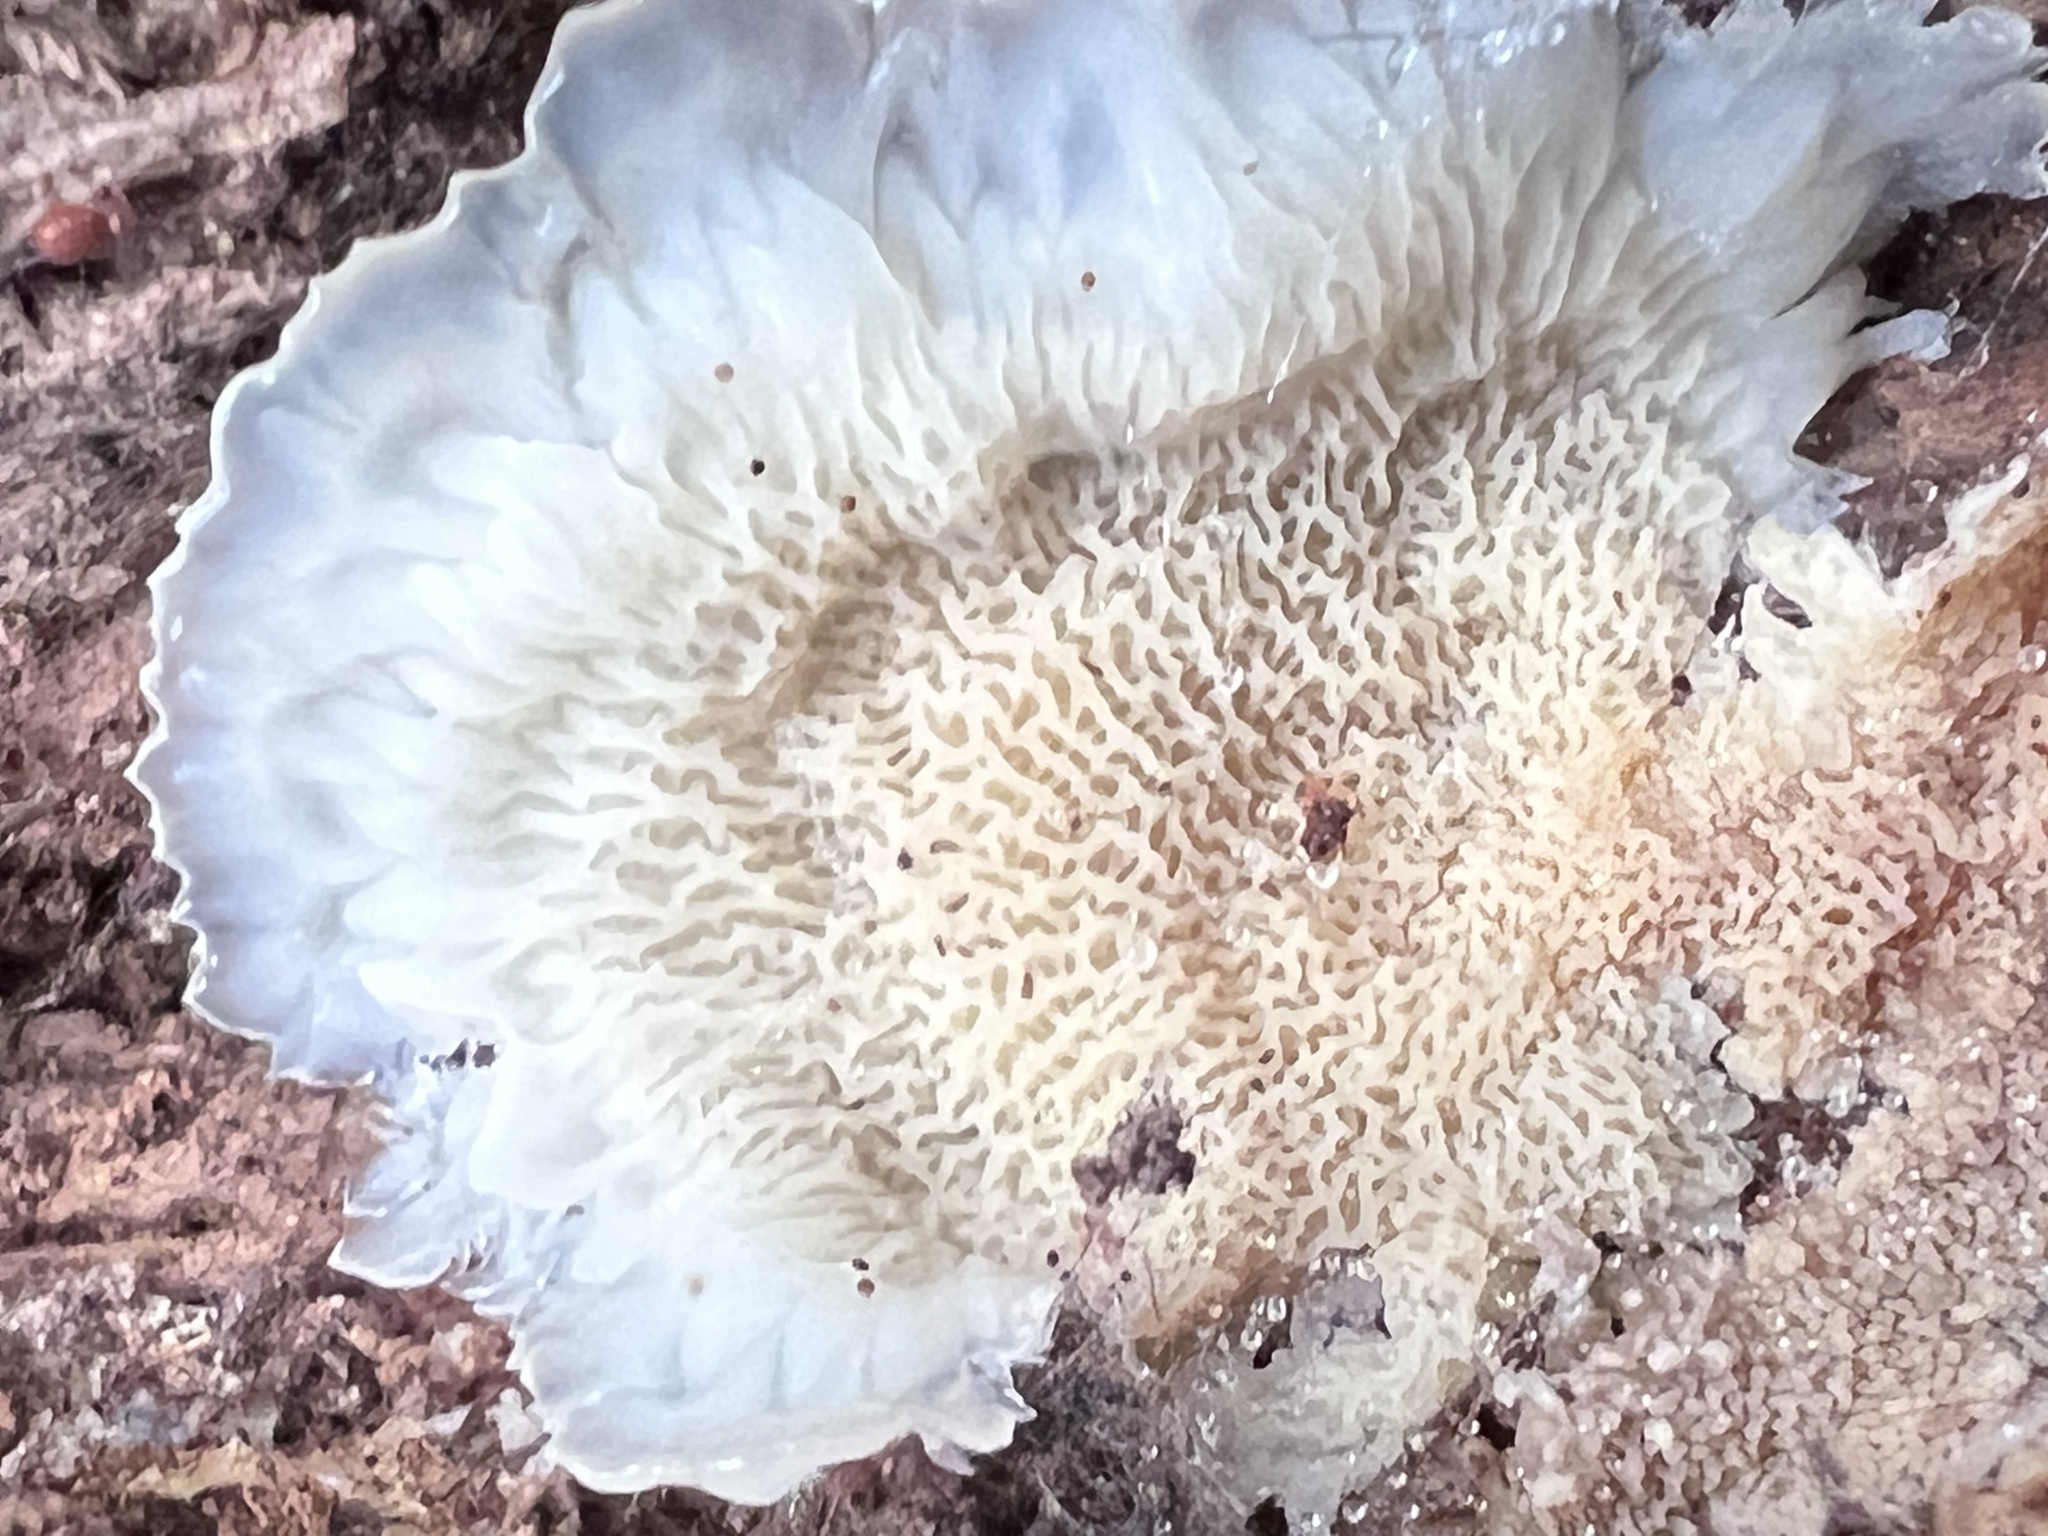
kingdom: Fungi
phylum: Basidiomycota
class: Agaricomycetes
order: Polyporales
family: Meruliaceae
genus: Phlebia
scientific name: Phlebia tremellosa
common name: Jelly rot
